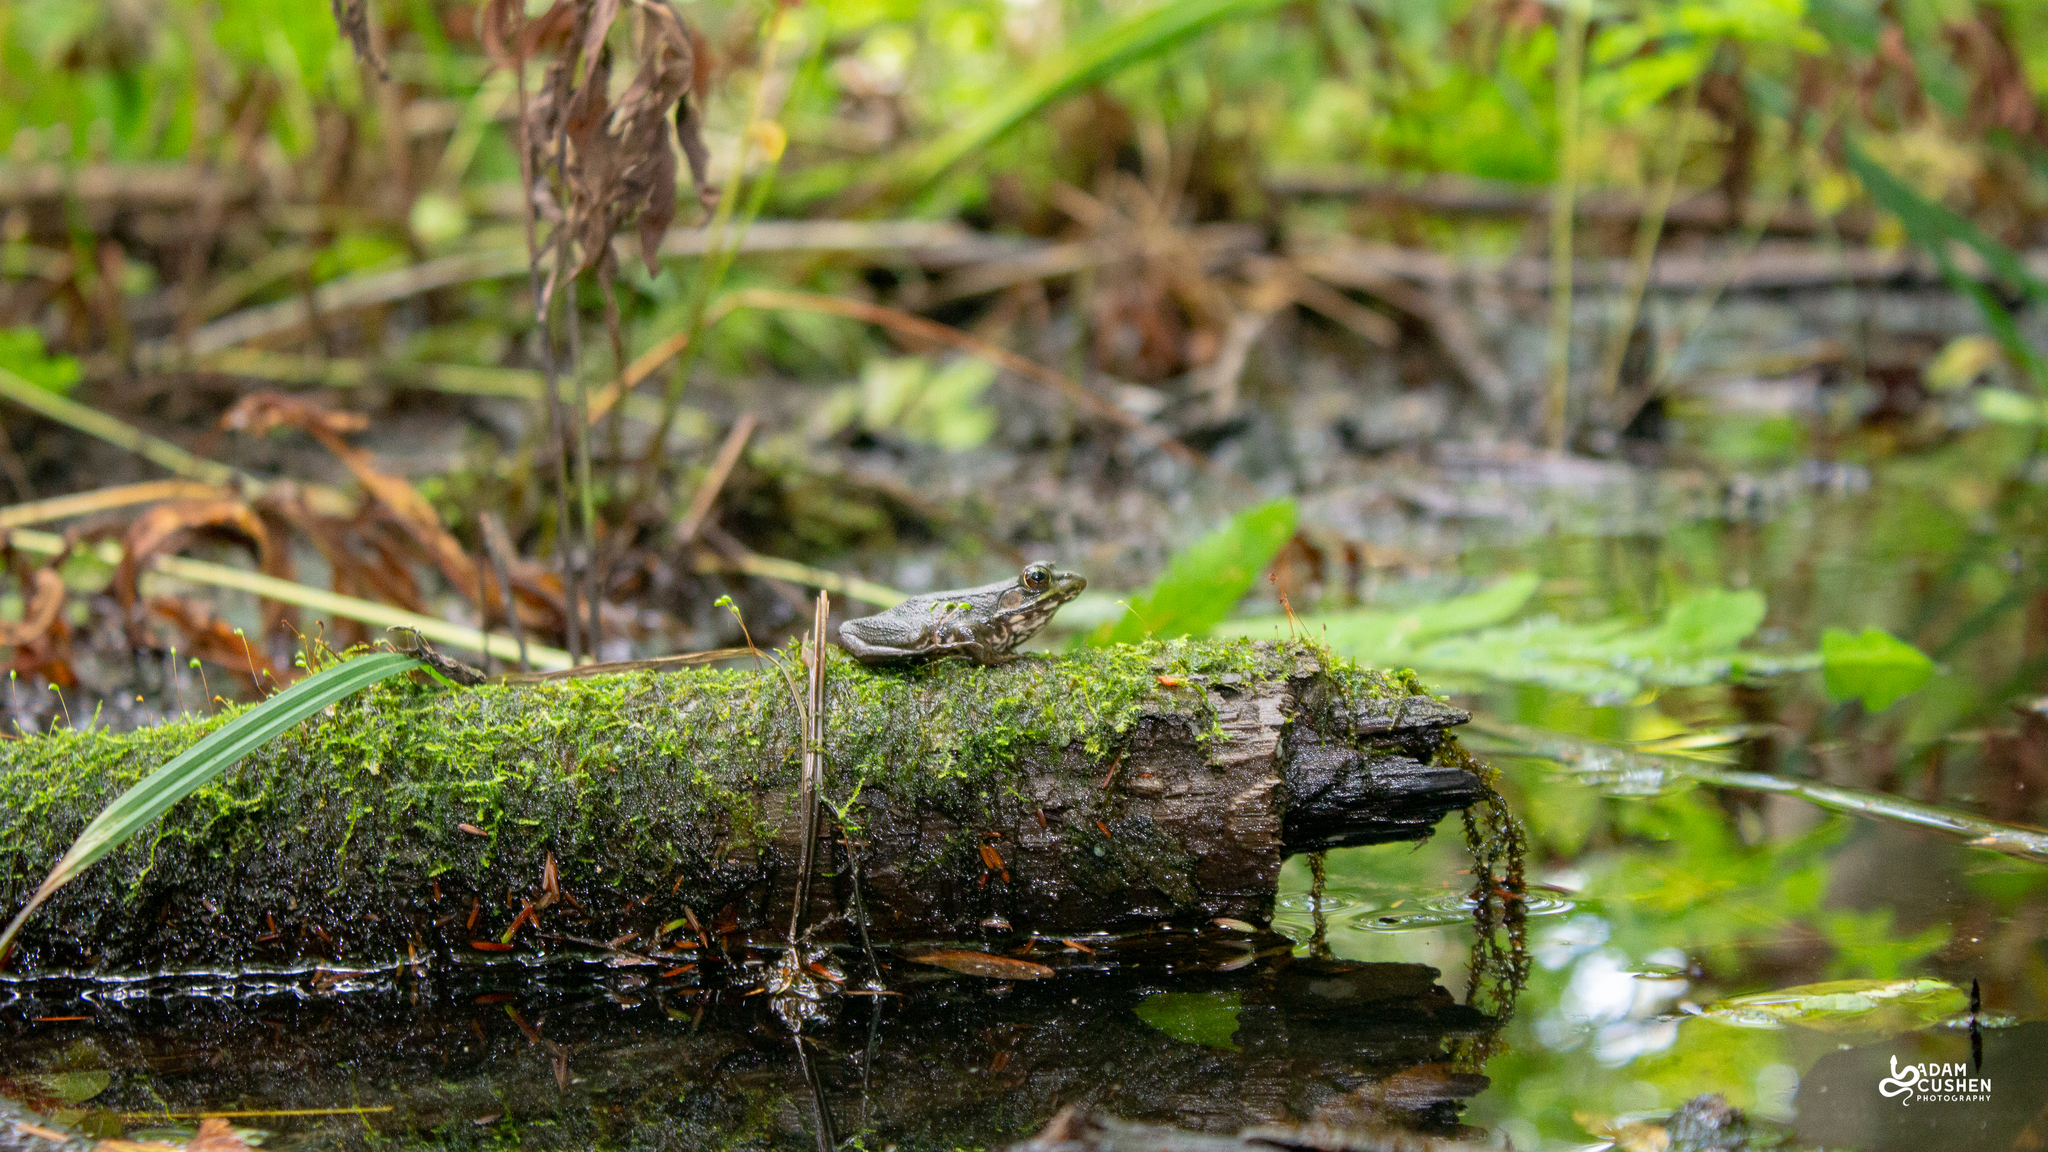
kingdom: Animalia
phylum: Chordata
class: Amphibia
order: Anura
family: Ranidae
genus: Lithobates
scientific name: Lithobates clamitans
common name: Green frog
